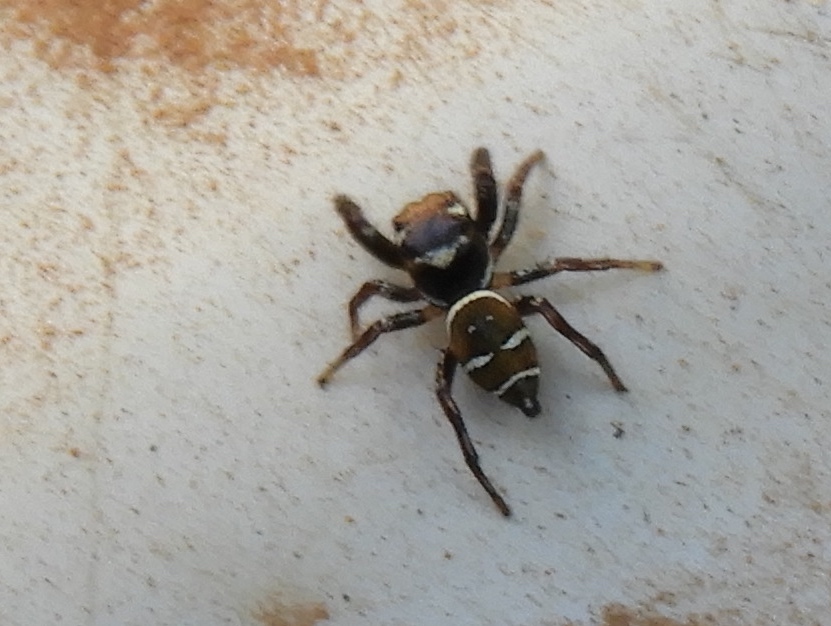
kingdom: Animalia
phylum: Arthropoda
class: Arachnida
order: Araneae
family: Salticidae
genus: Sassacus
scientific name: Sassacus
